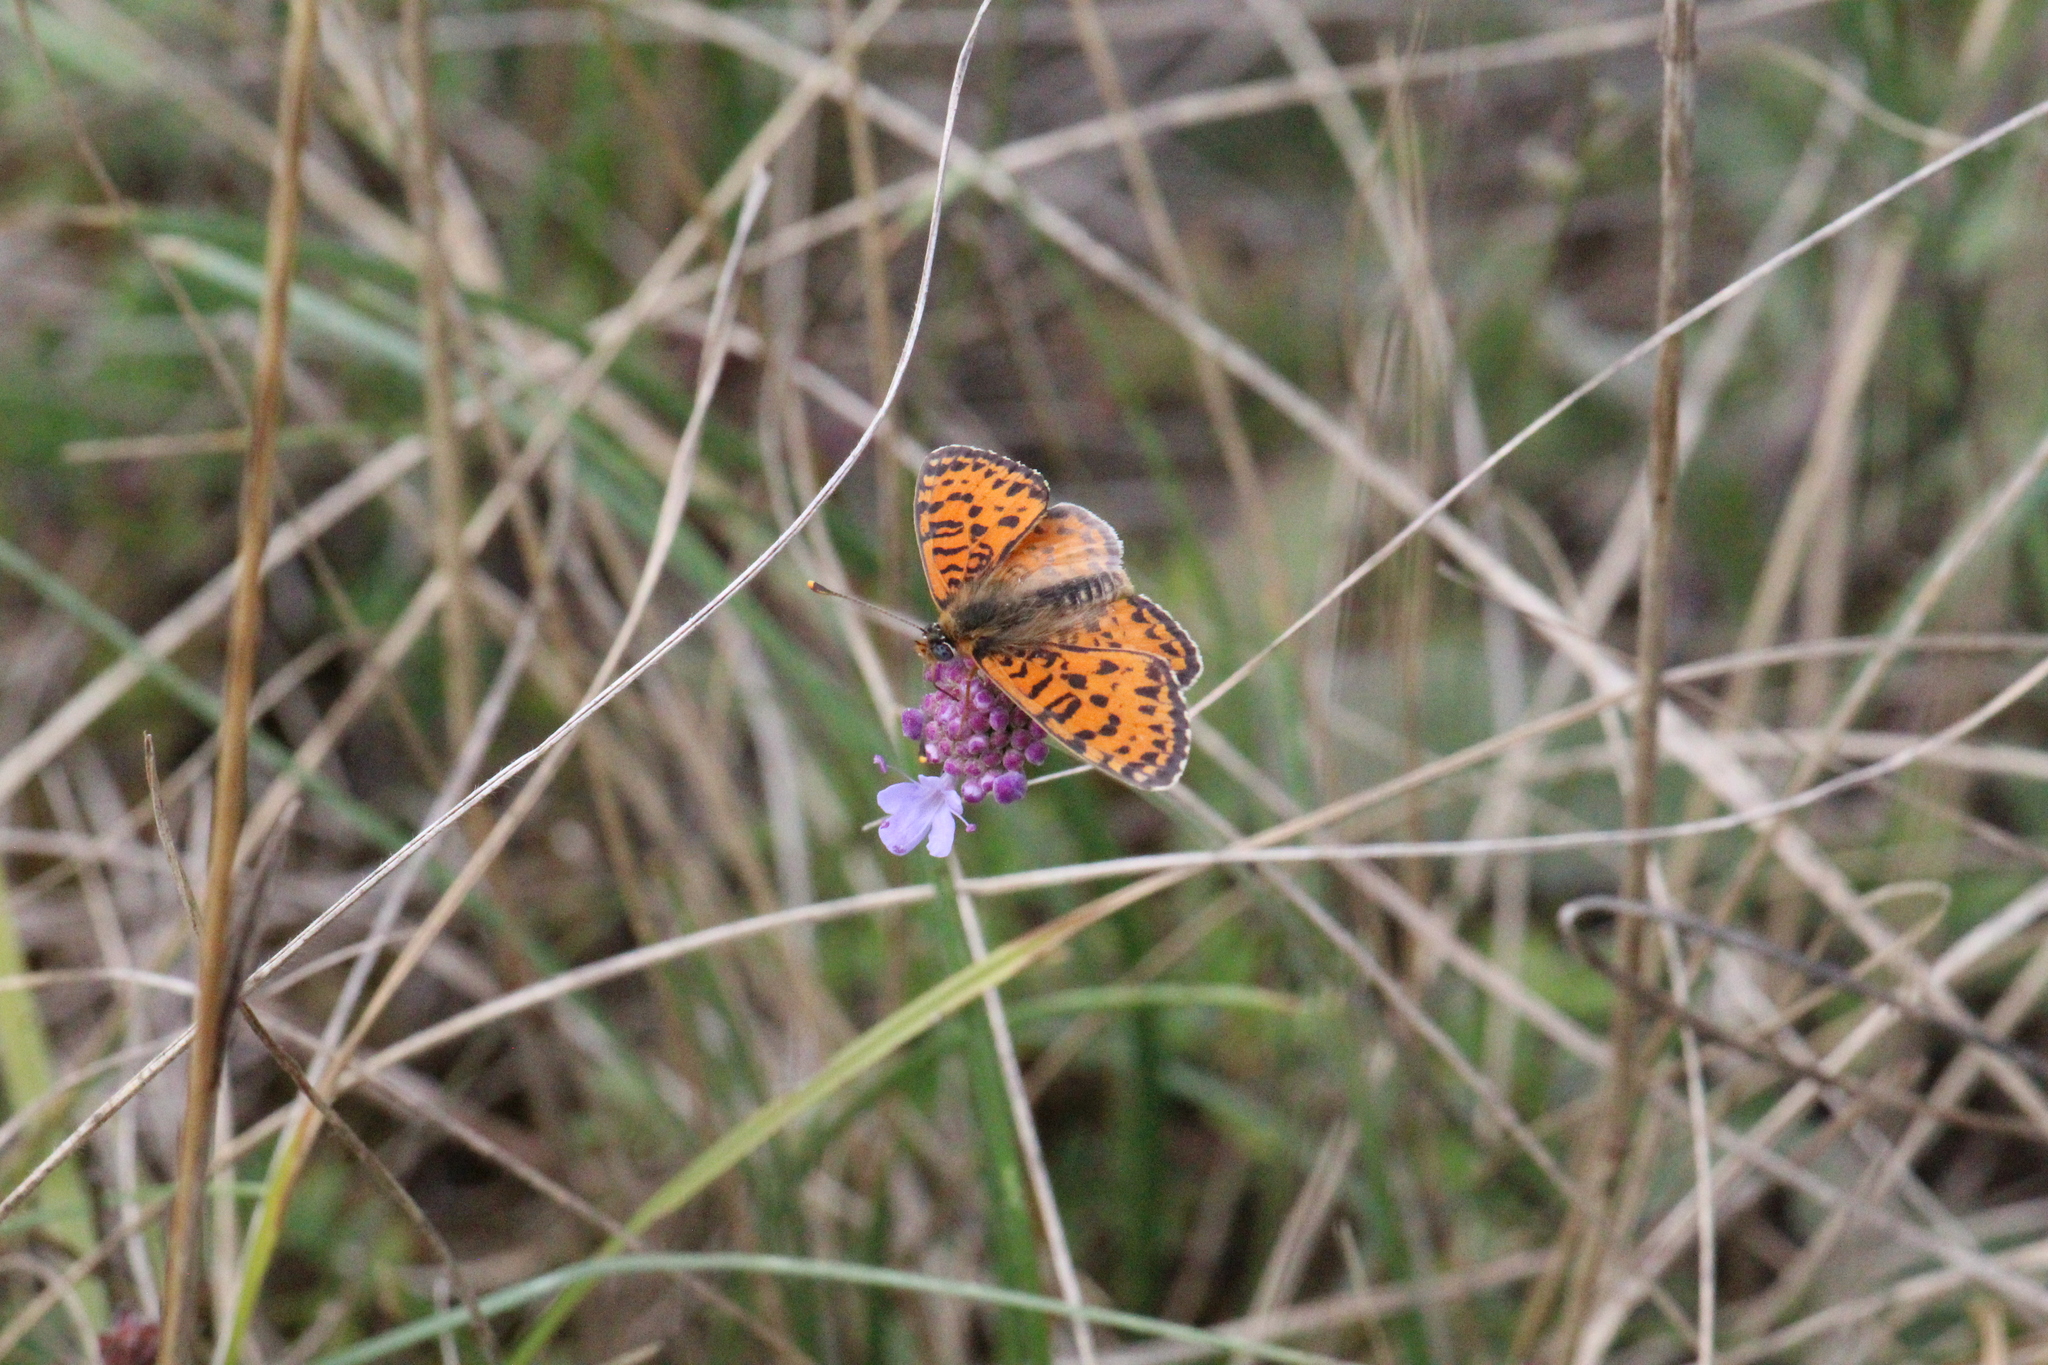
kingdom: Animalia
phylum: Arthropoda
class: Insecta
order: Lepidoptera
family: Nymphalidae
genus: Melitaea
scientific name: Melitaea didyma
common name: Spotted fritillary
